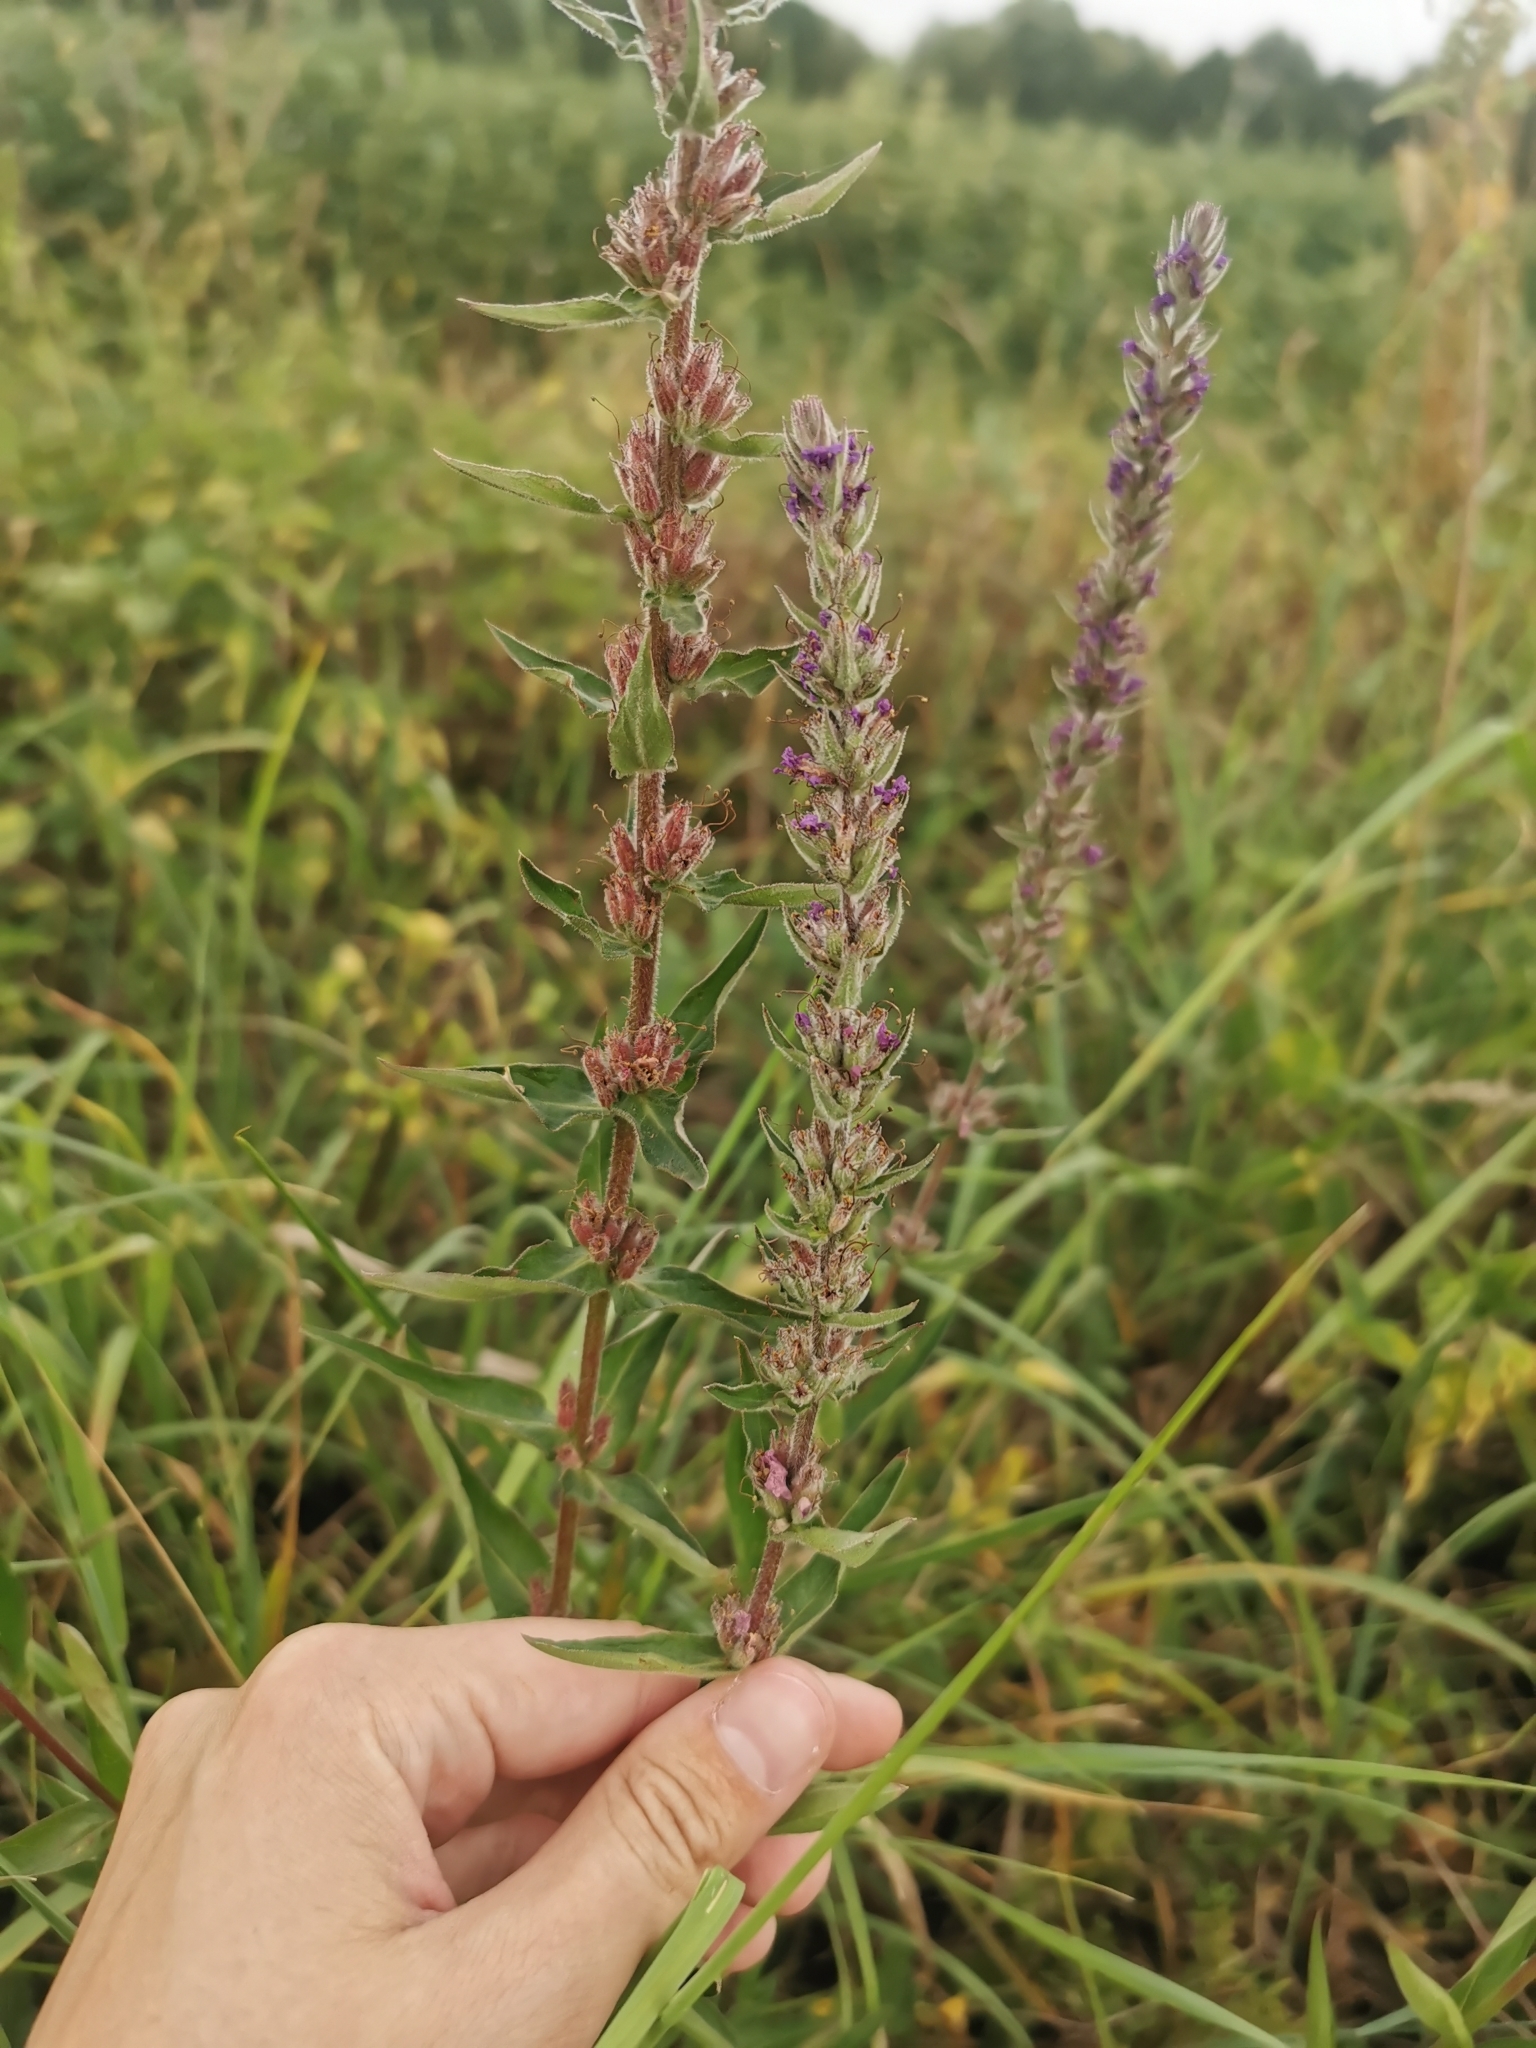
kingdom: Plantae
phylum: Tracheophyta
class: Magnoliopsida
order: Myrtales
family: Lythraceae
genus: Lythrum
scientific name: Lythrum salicaria
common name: Purple loosestrife
